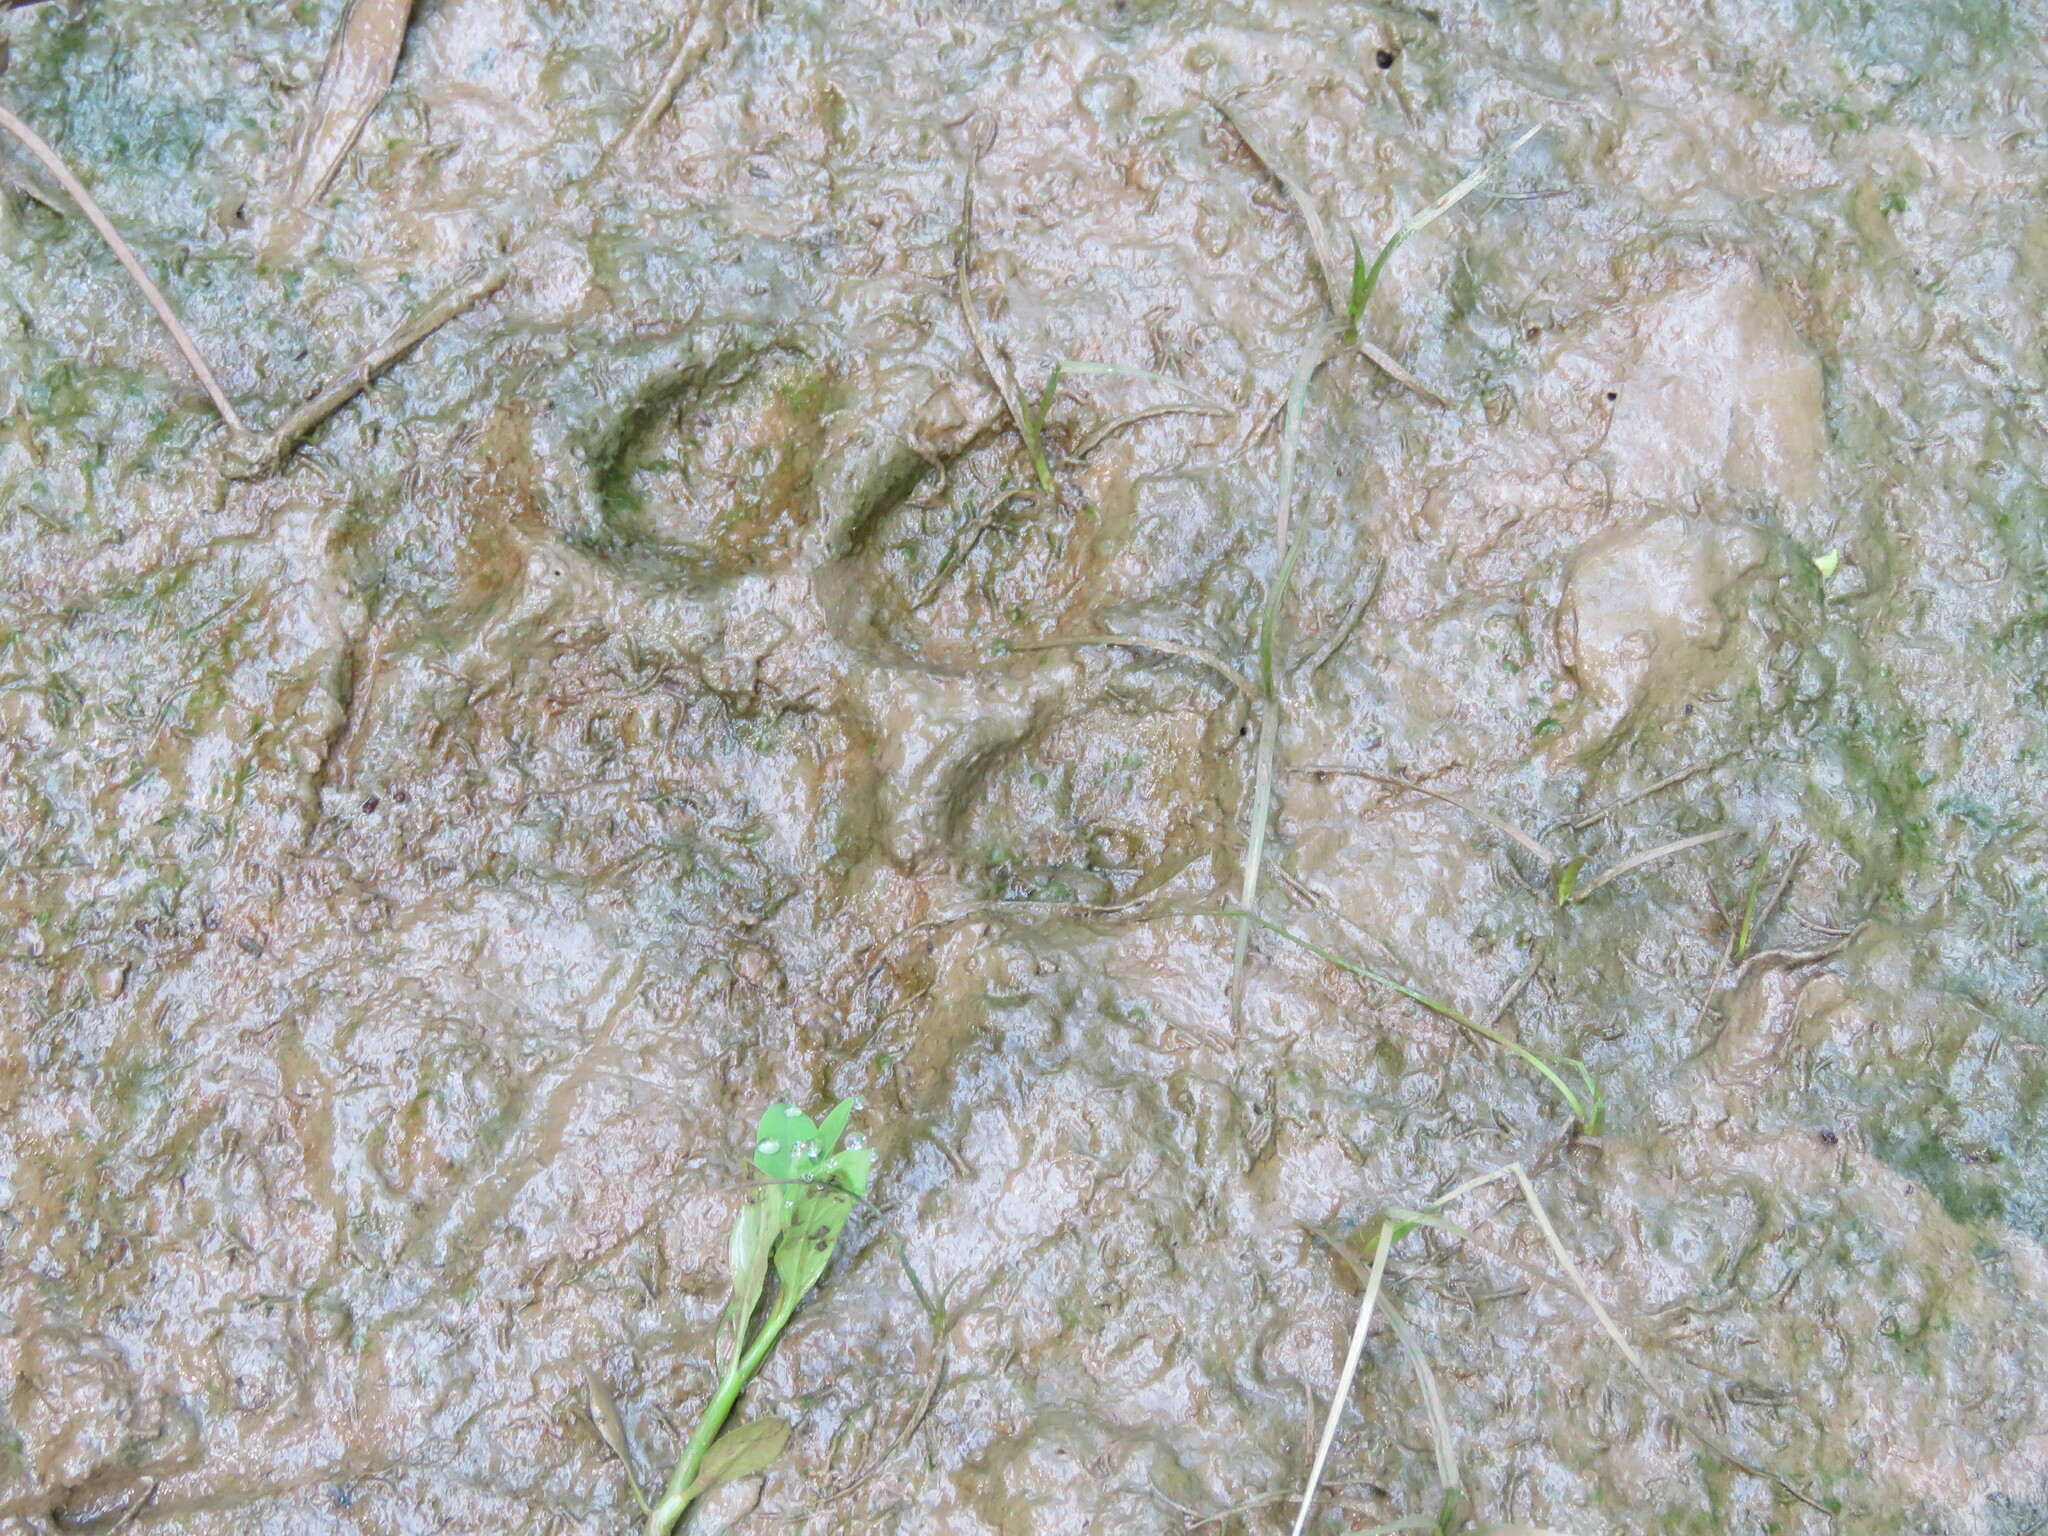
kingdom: Animalia
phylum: Chordata
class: Mammalia
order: Carnivora
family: Felidae
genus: Puma
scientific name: Puma concolor
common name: Puma
